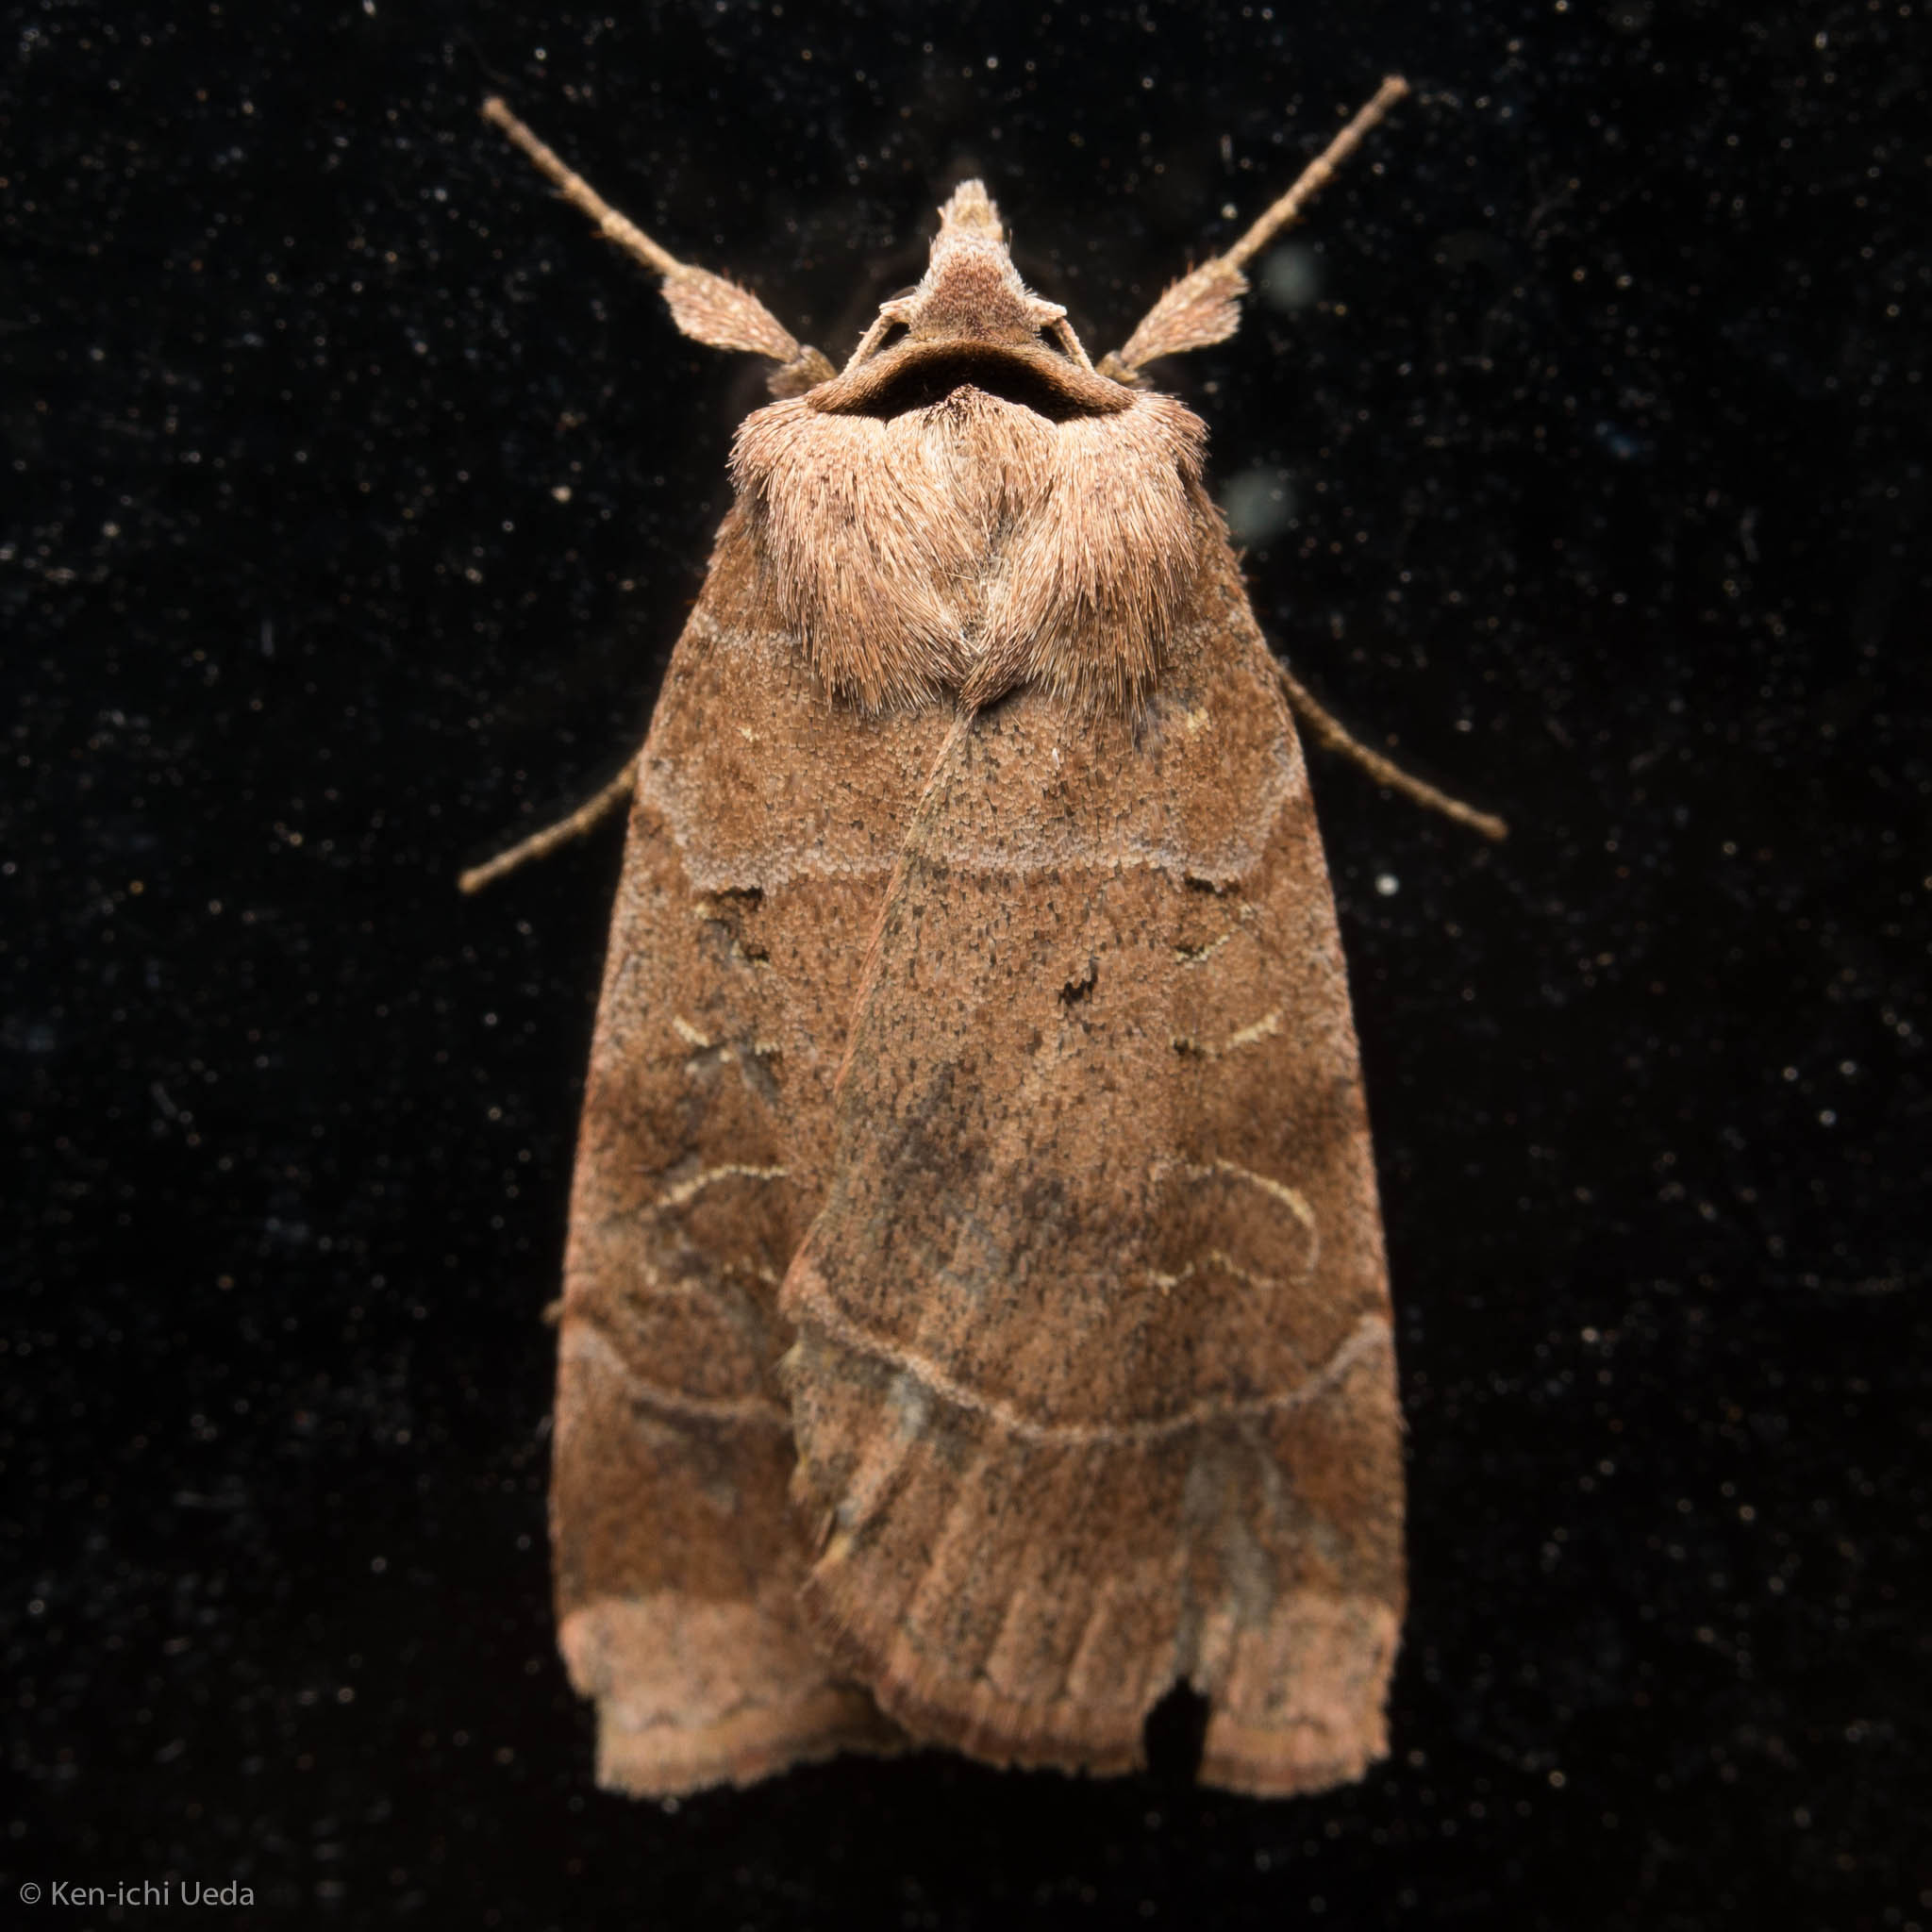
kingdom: Animalia
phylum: Arthropoda
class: Insecta
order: Lepidoptera
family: Noctuidae
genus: Agnorisma
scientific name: Agnorisma badinodis
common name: Pale-banded dart
